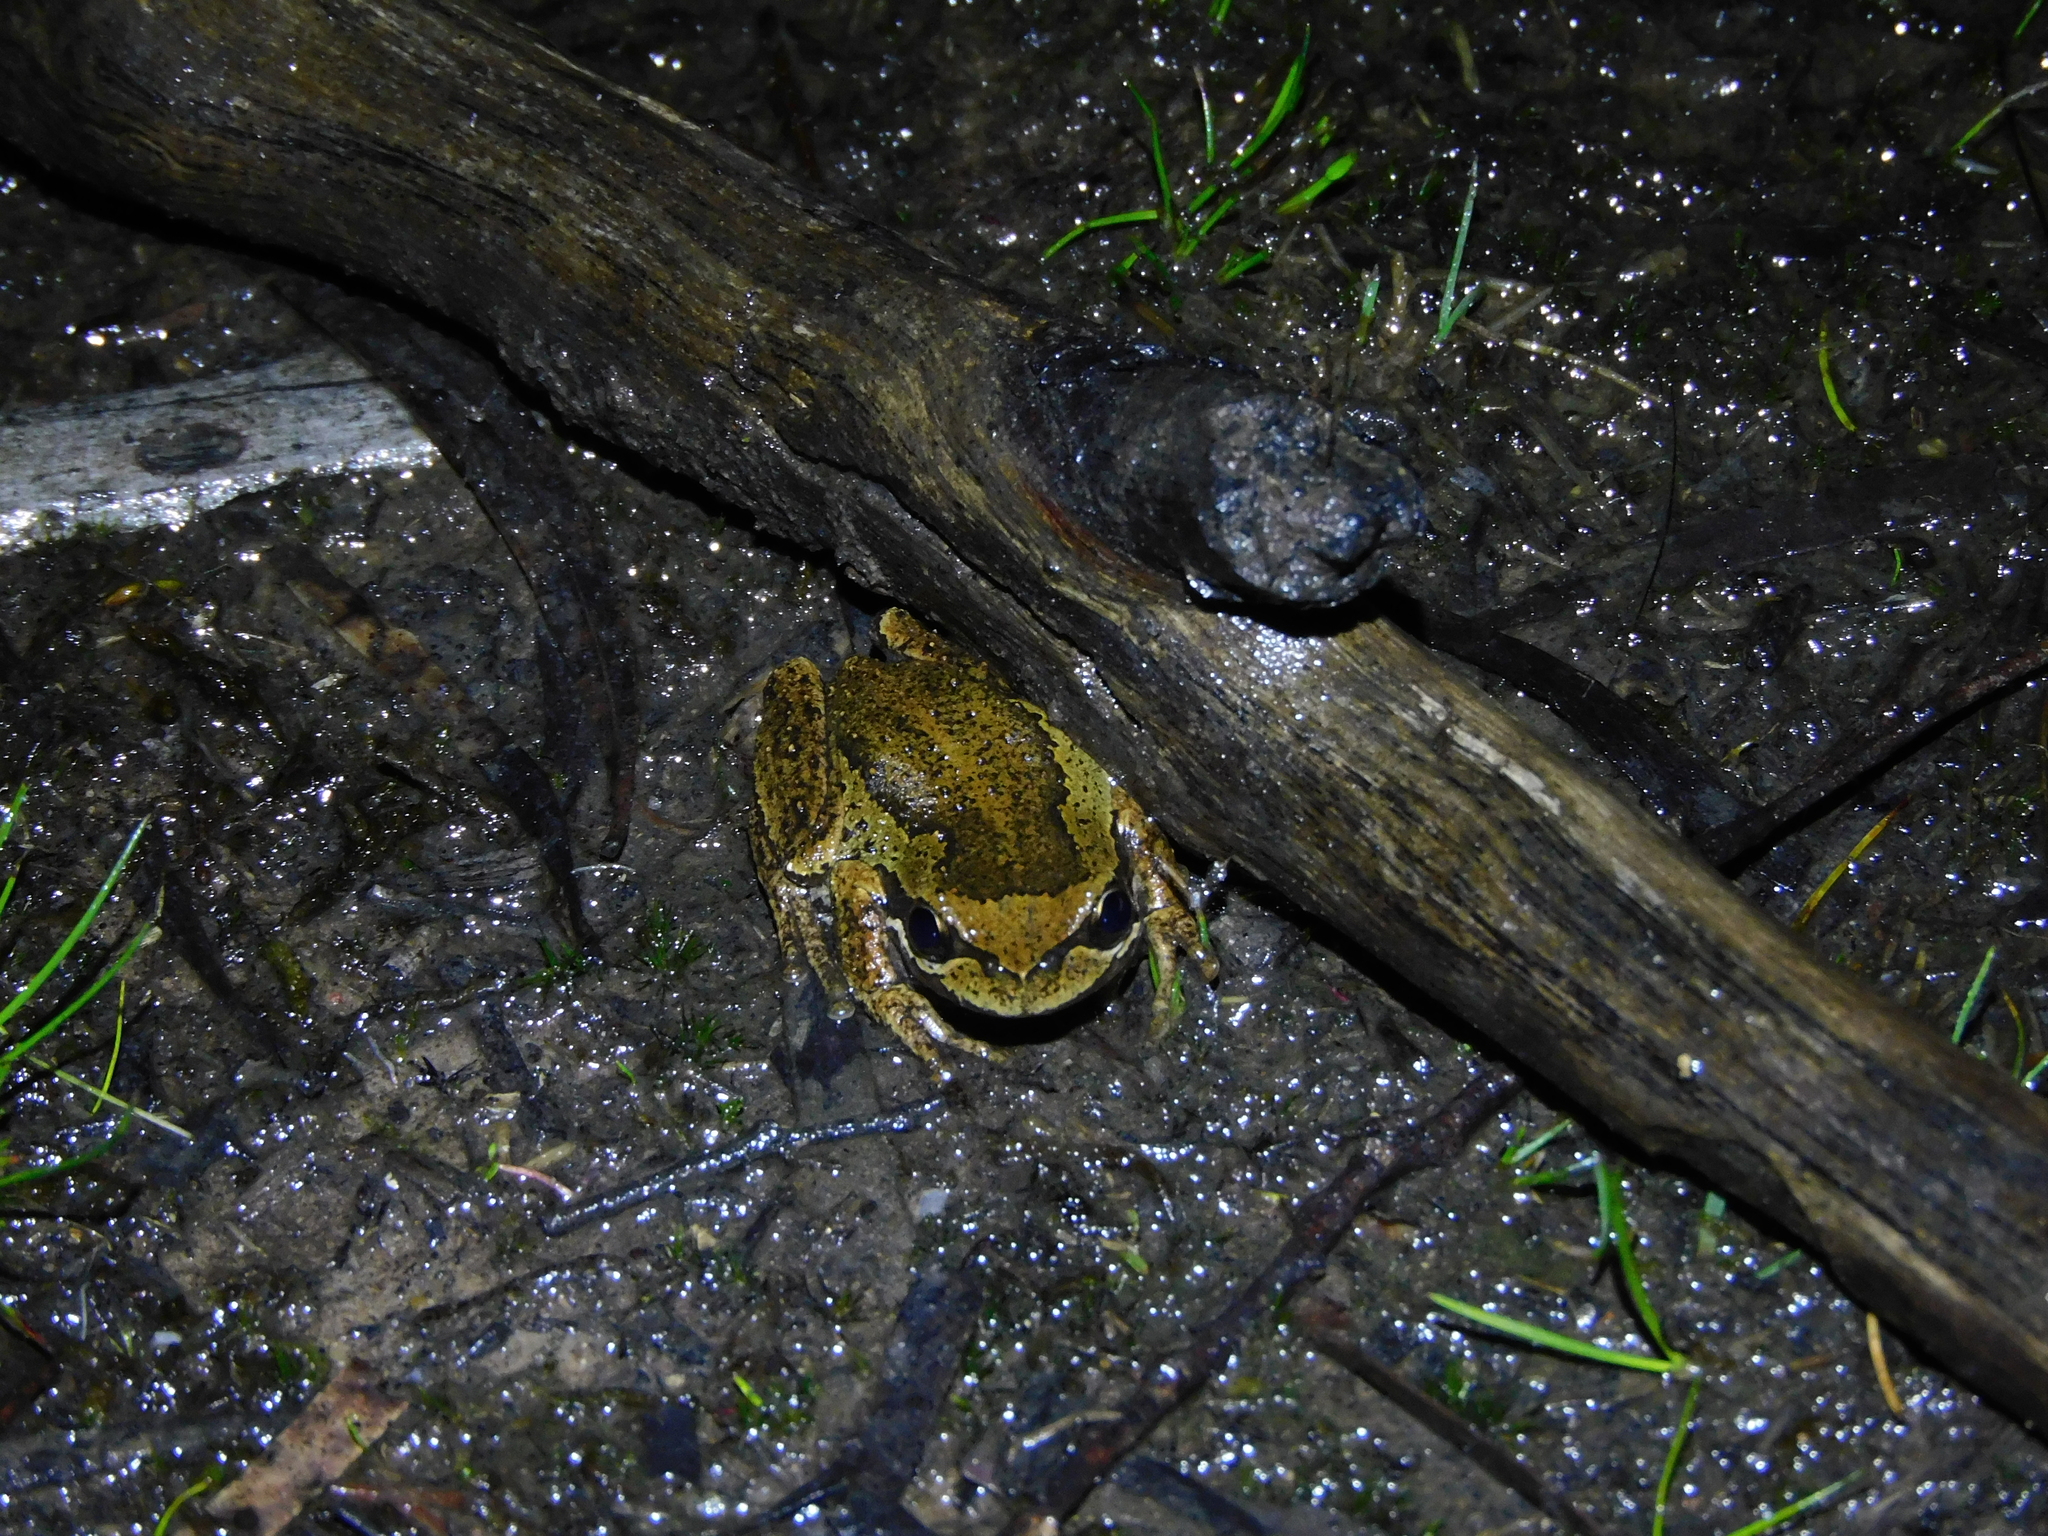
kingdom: Animalia
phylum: Chordata
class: Amphibia
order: Anura
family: Pelodryadidae
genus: Litoria
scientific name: Litoria ewingii
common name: Southern brown tree frog
